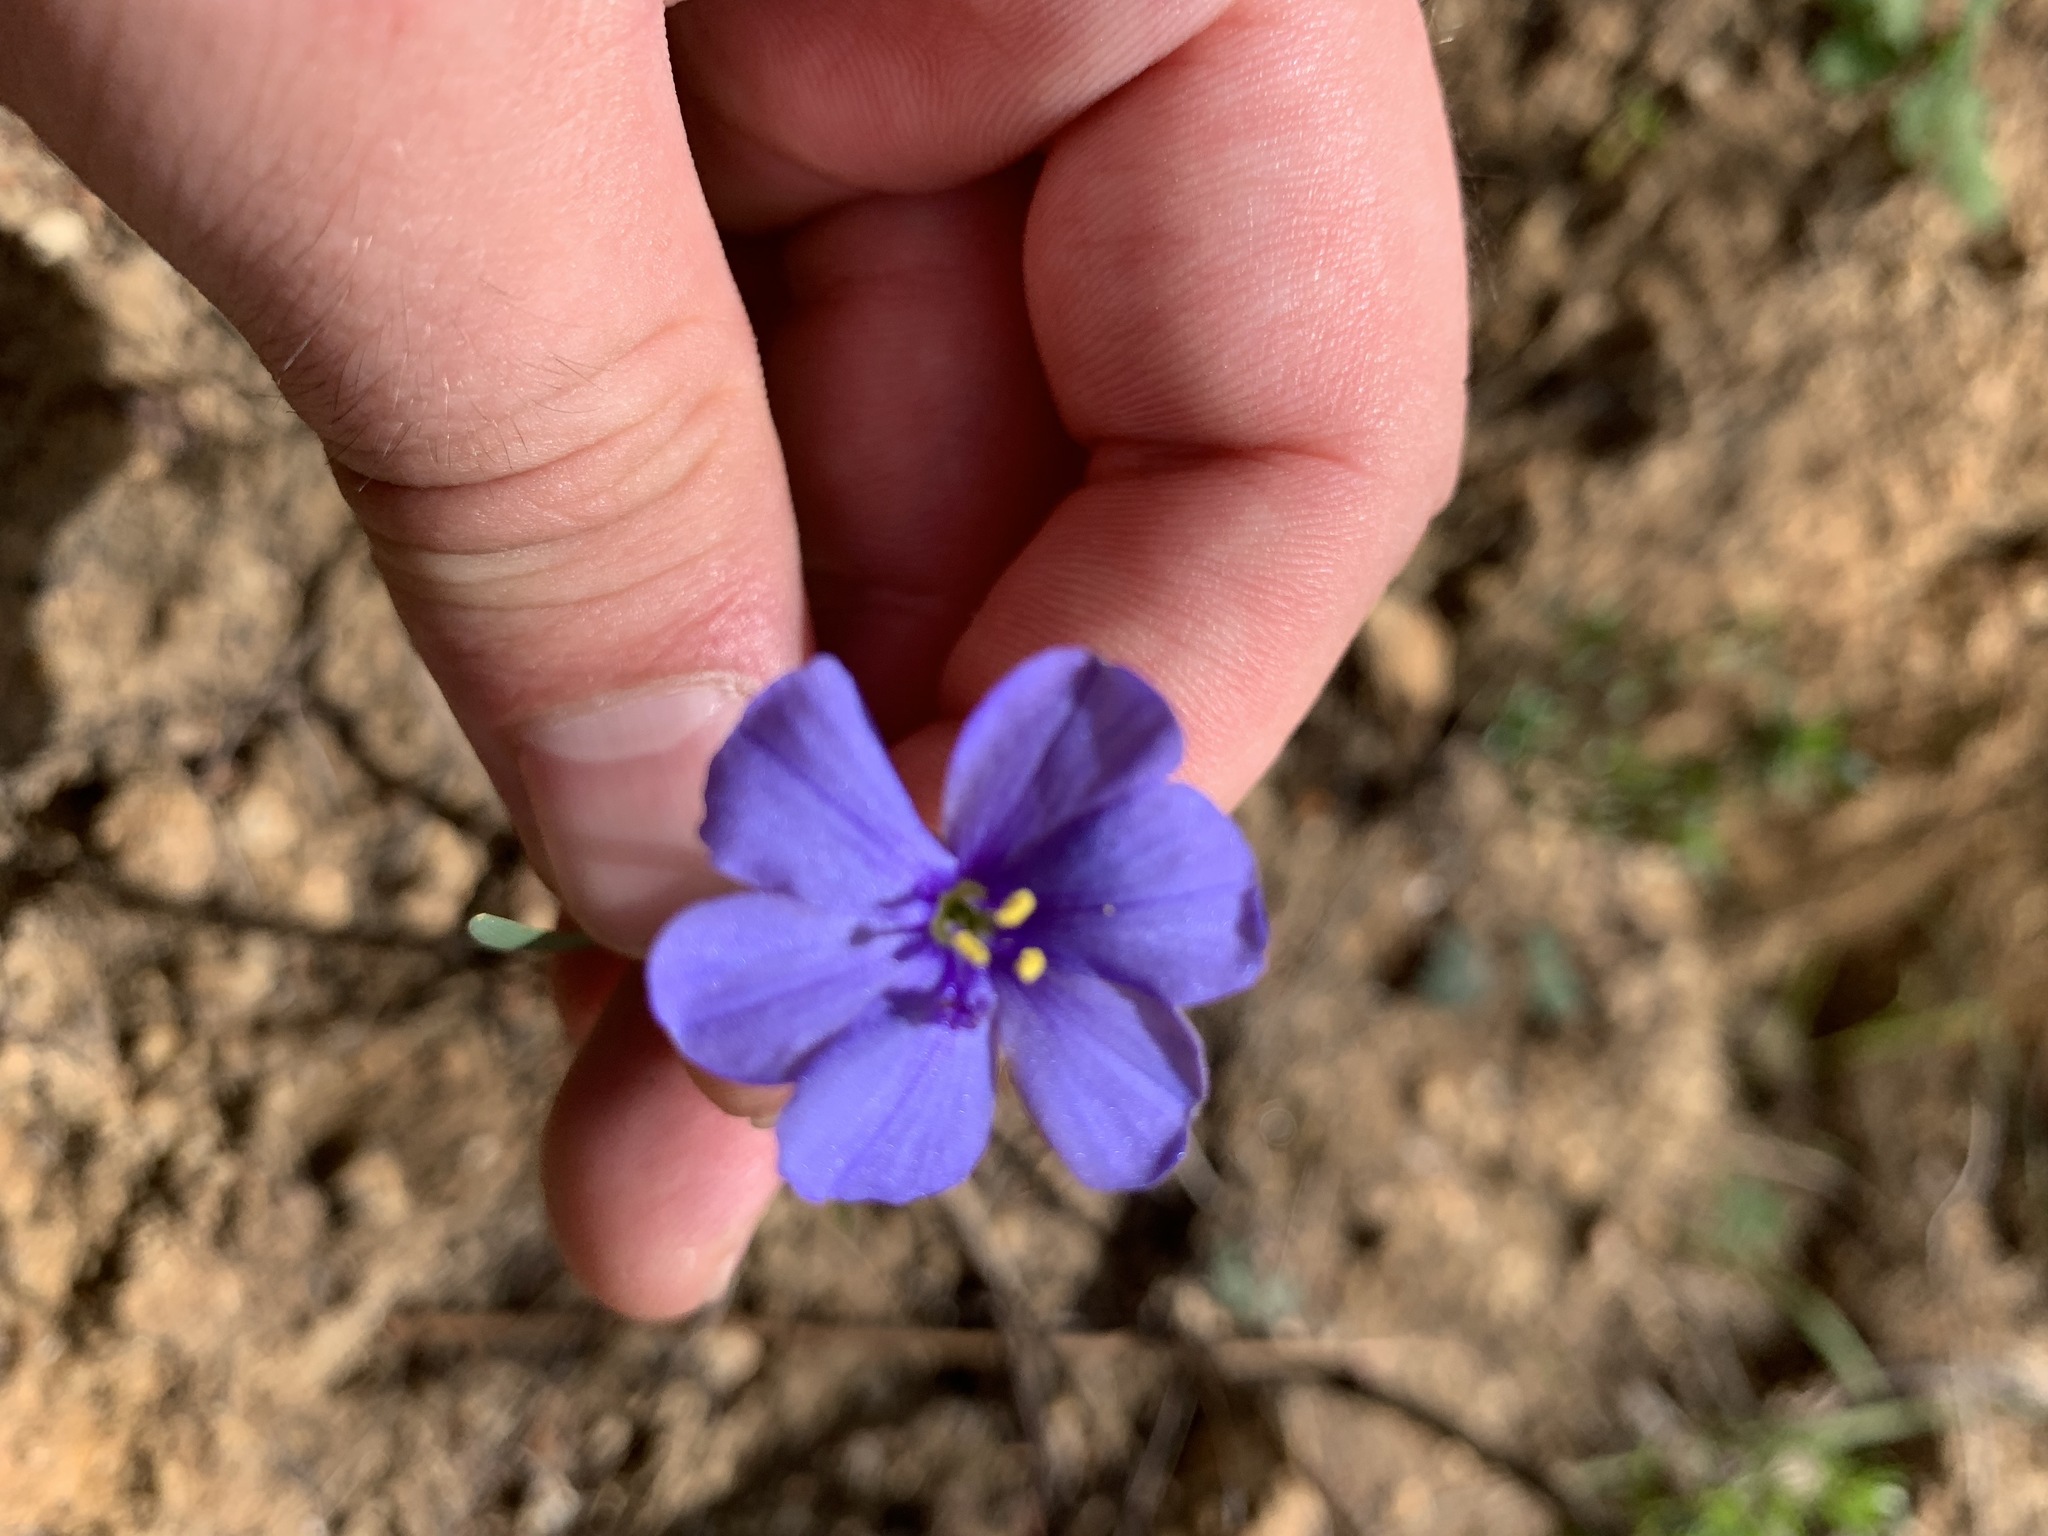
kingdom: Plantae
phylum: Tracheophyta
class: Liliopsida
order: Asparagales
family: Iridaceae
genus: Aristea
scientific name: Aristea africana
